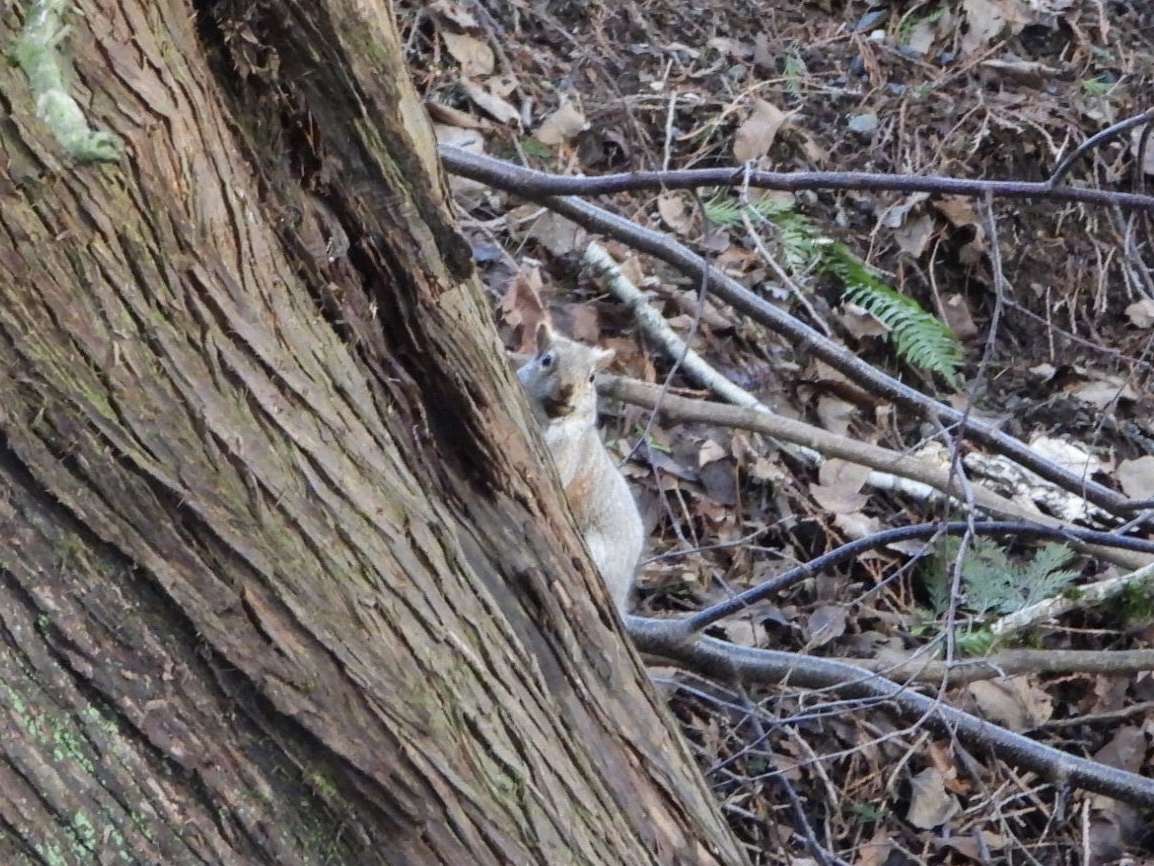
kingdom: Animalia
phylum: Chordata
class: Mammalia
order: Rodentia
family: Sciuridae
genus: Sciurus
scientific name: Sciurus carolinensis
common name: Eastern gray squirrel
